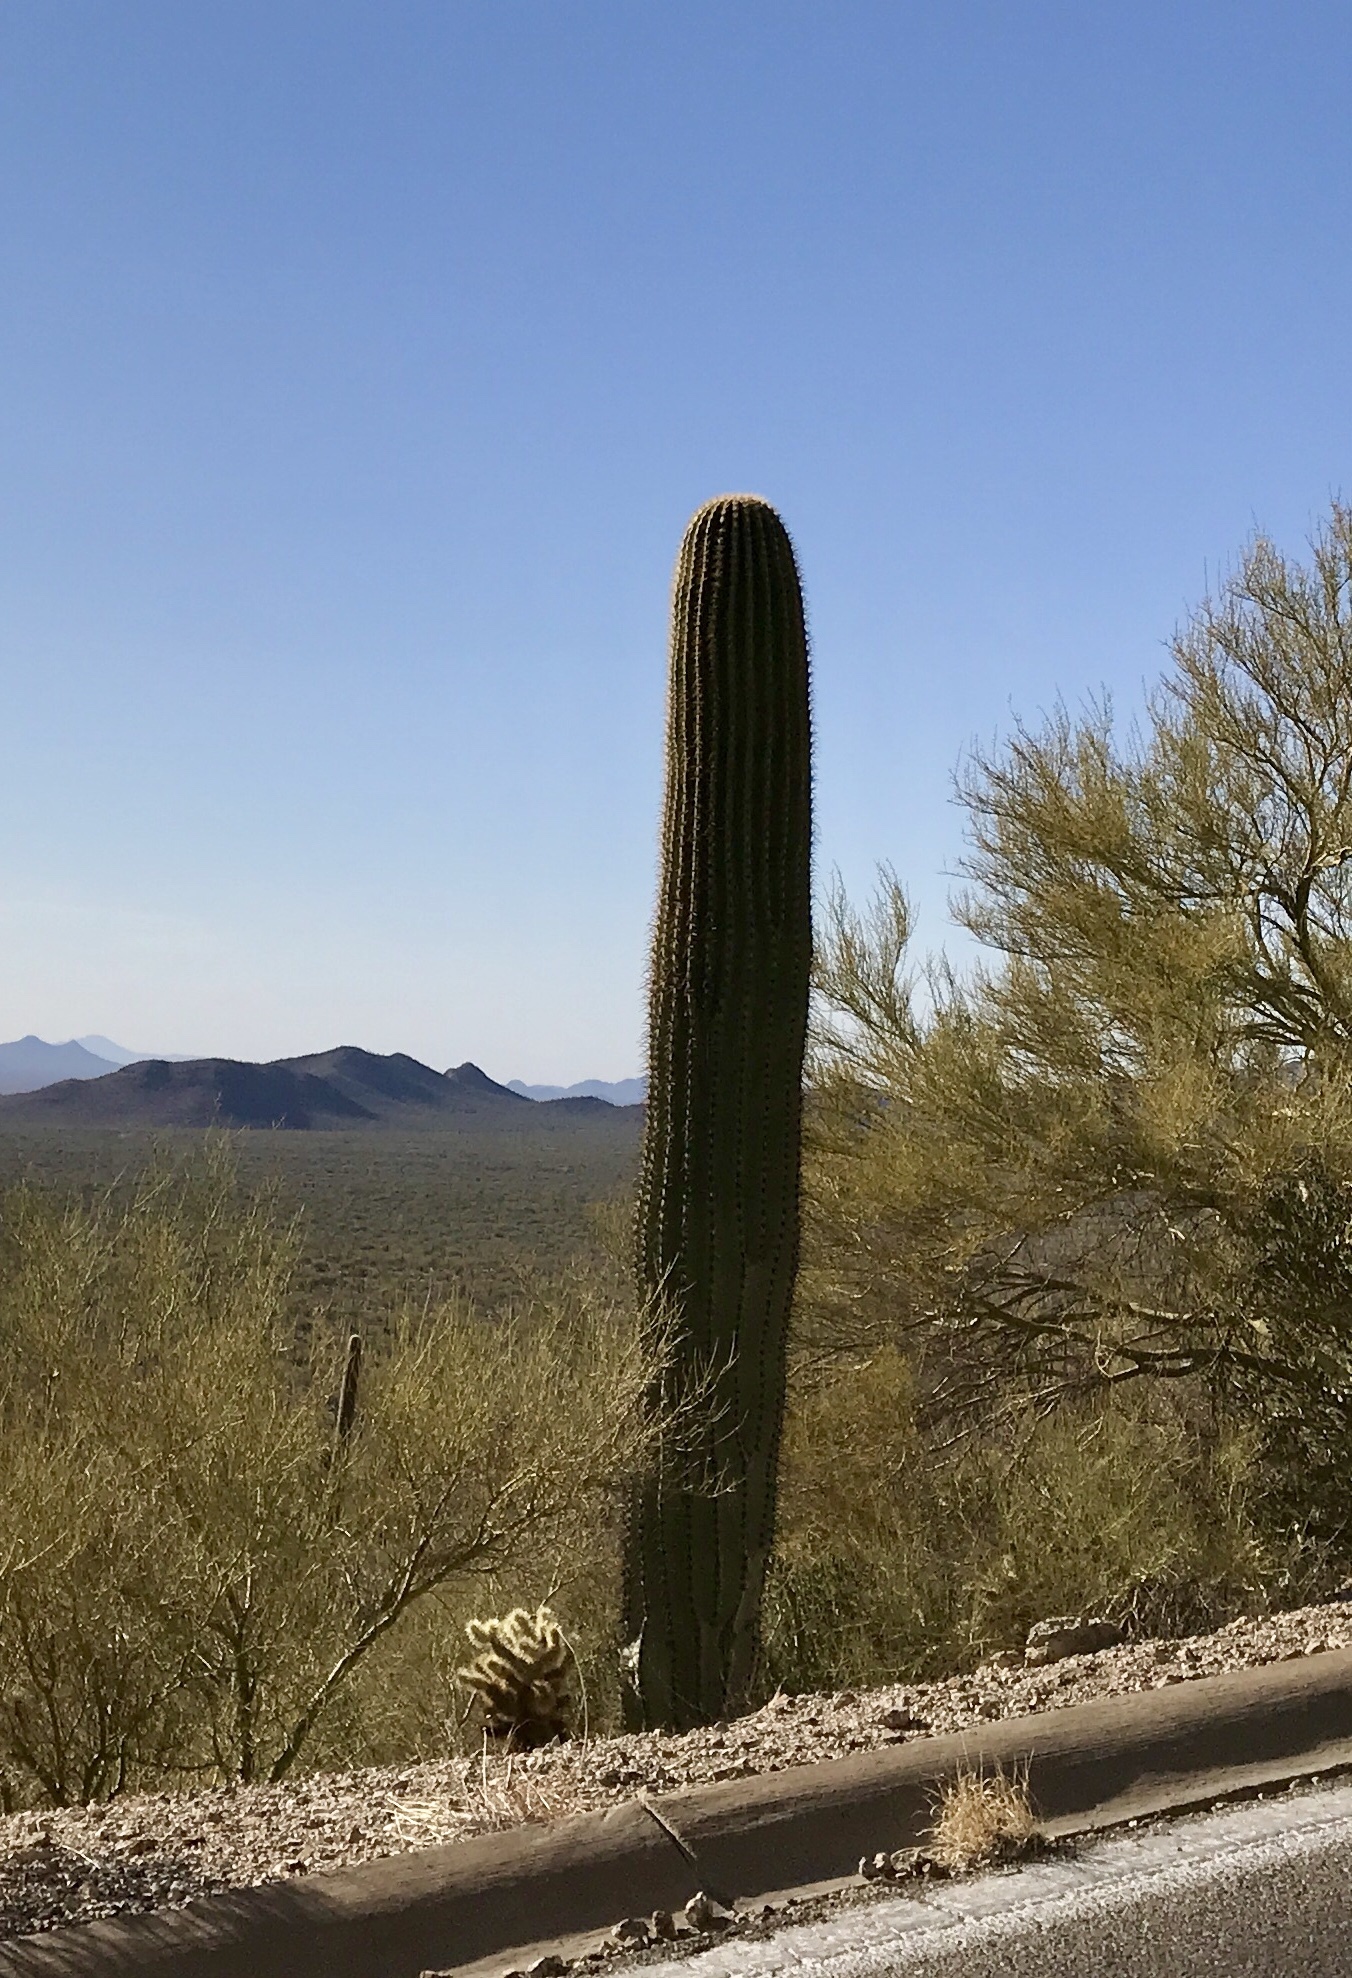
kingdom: Plantae
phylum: Tracheophyta
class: Magnoliopsida
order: Caryophyllales
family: Cactaceae
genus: Carnegiea
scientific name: Carnegiea gigantea
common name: Saguaro
